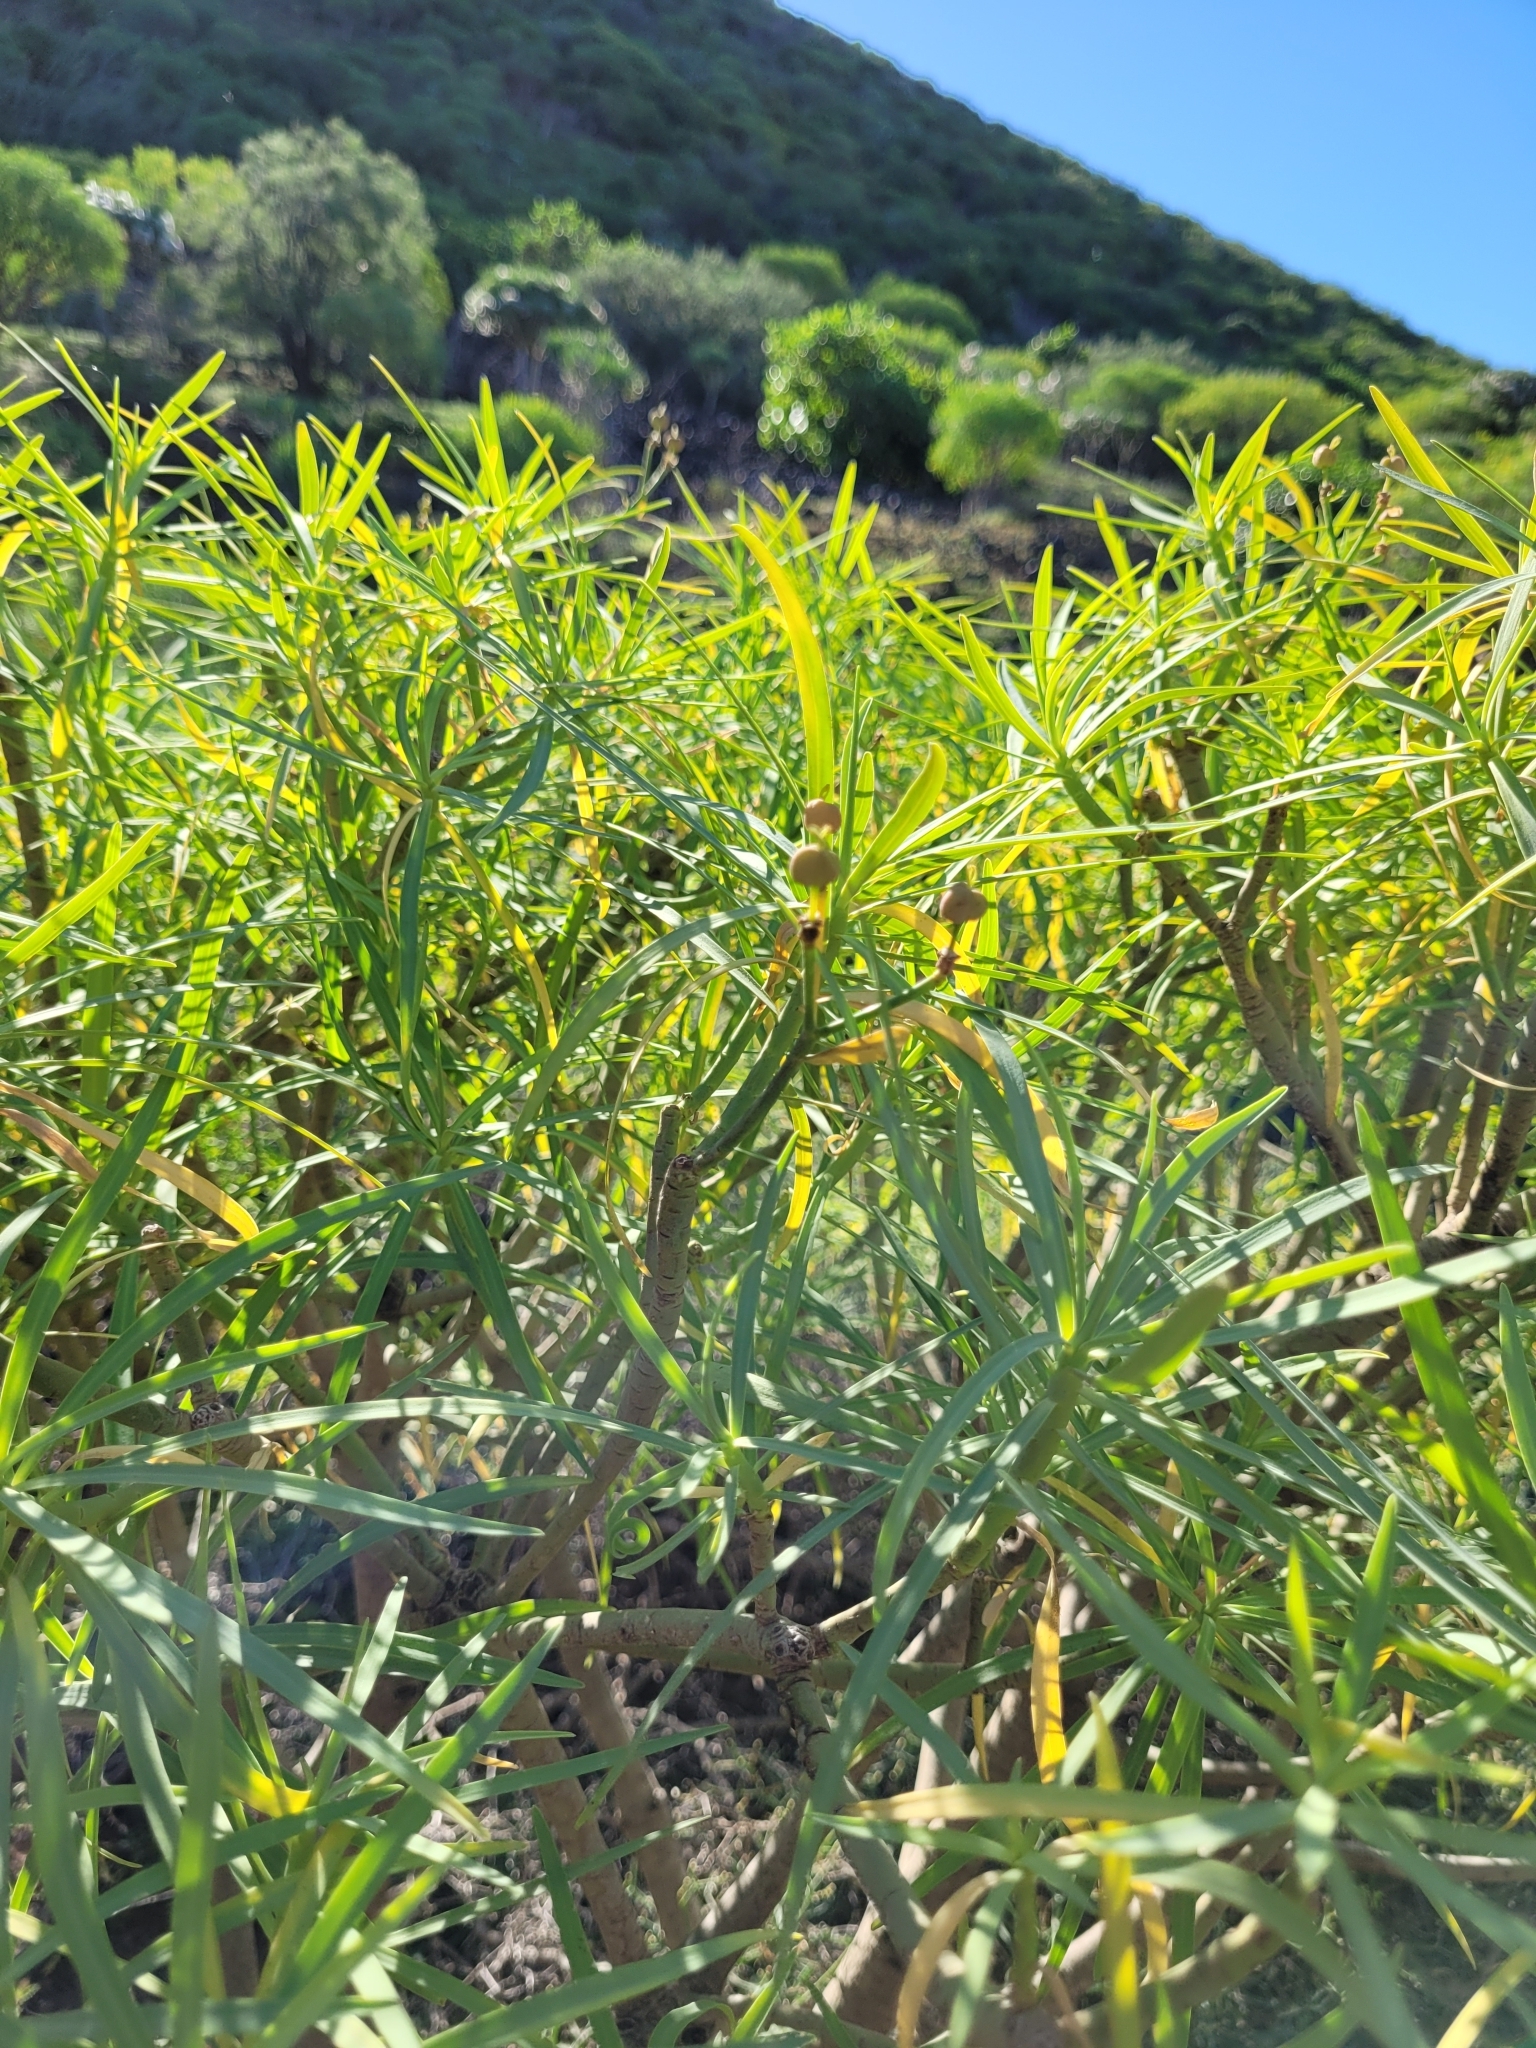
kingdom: Plantae
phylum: Tracheophyta
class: Magnoliopsida
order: Malpighiales
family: Euphorbiaceae
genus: Euphorbia
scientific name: Euphorbia lamarckii
